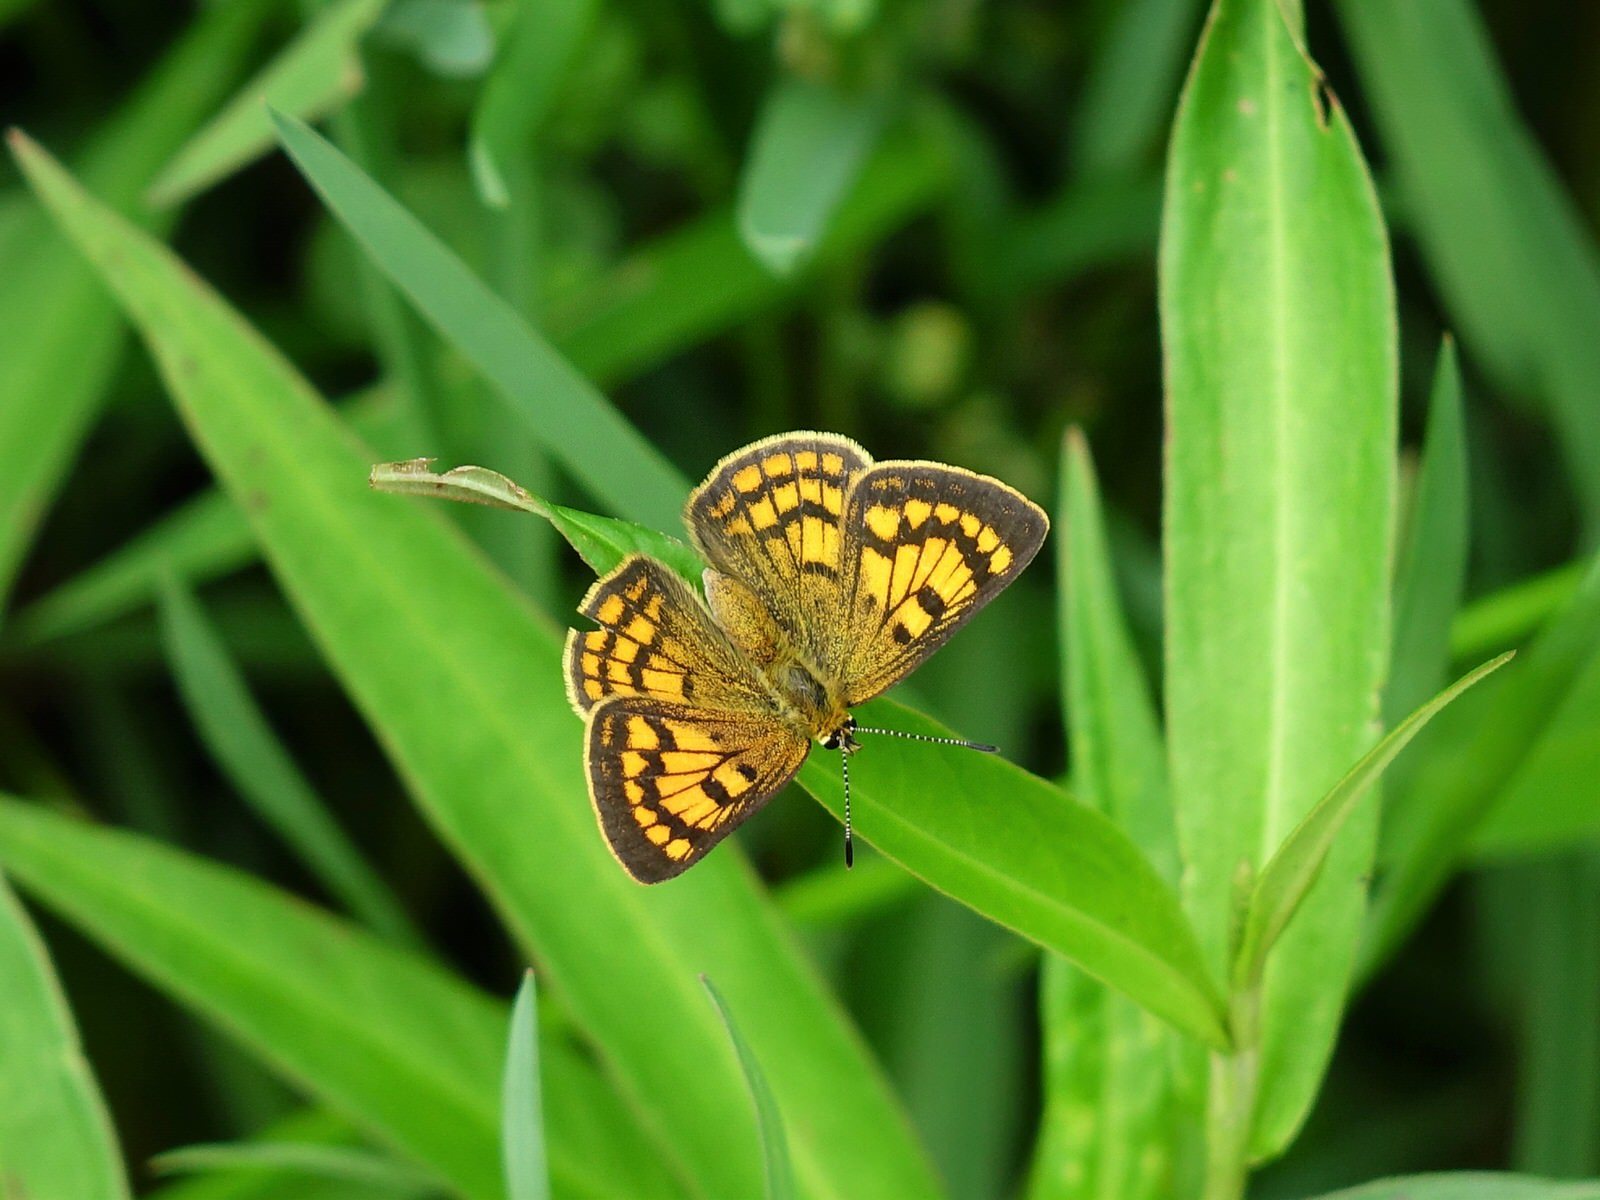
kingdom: Animalia
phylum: Arthropoda
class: Insecta
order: Lepidoptera
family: Lycaenidae
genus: Lycaena
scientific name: Lycaena
